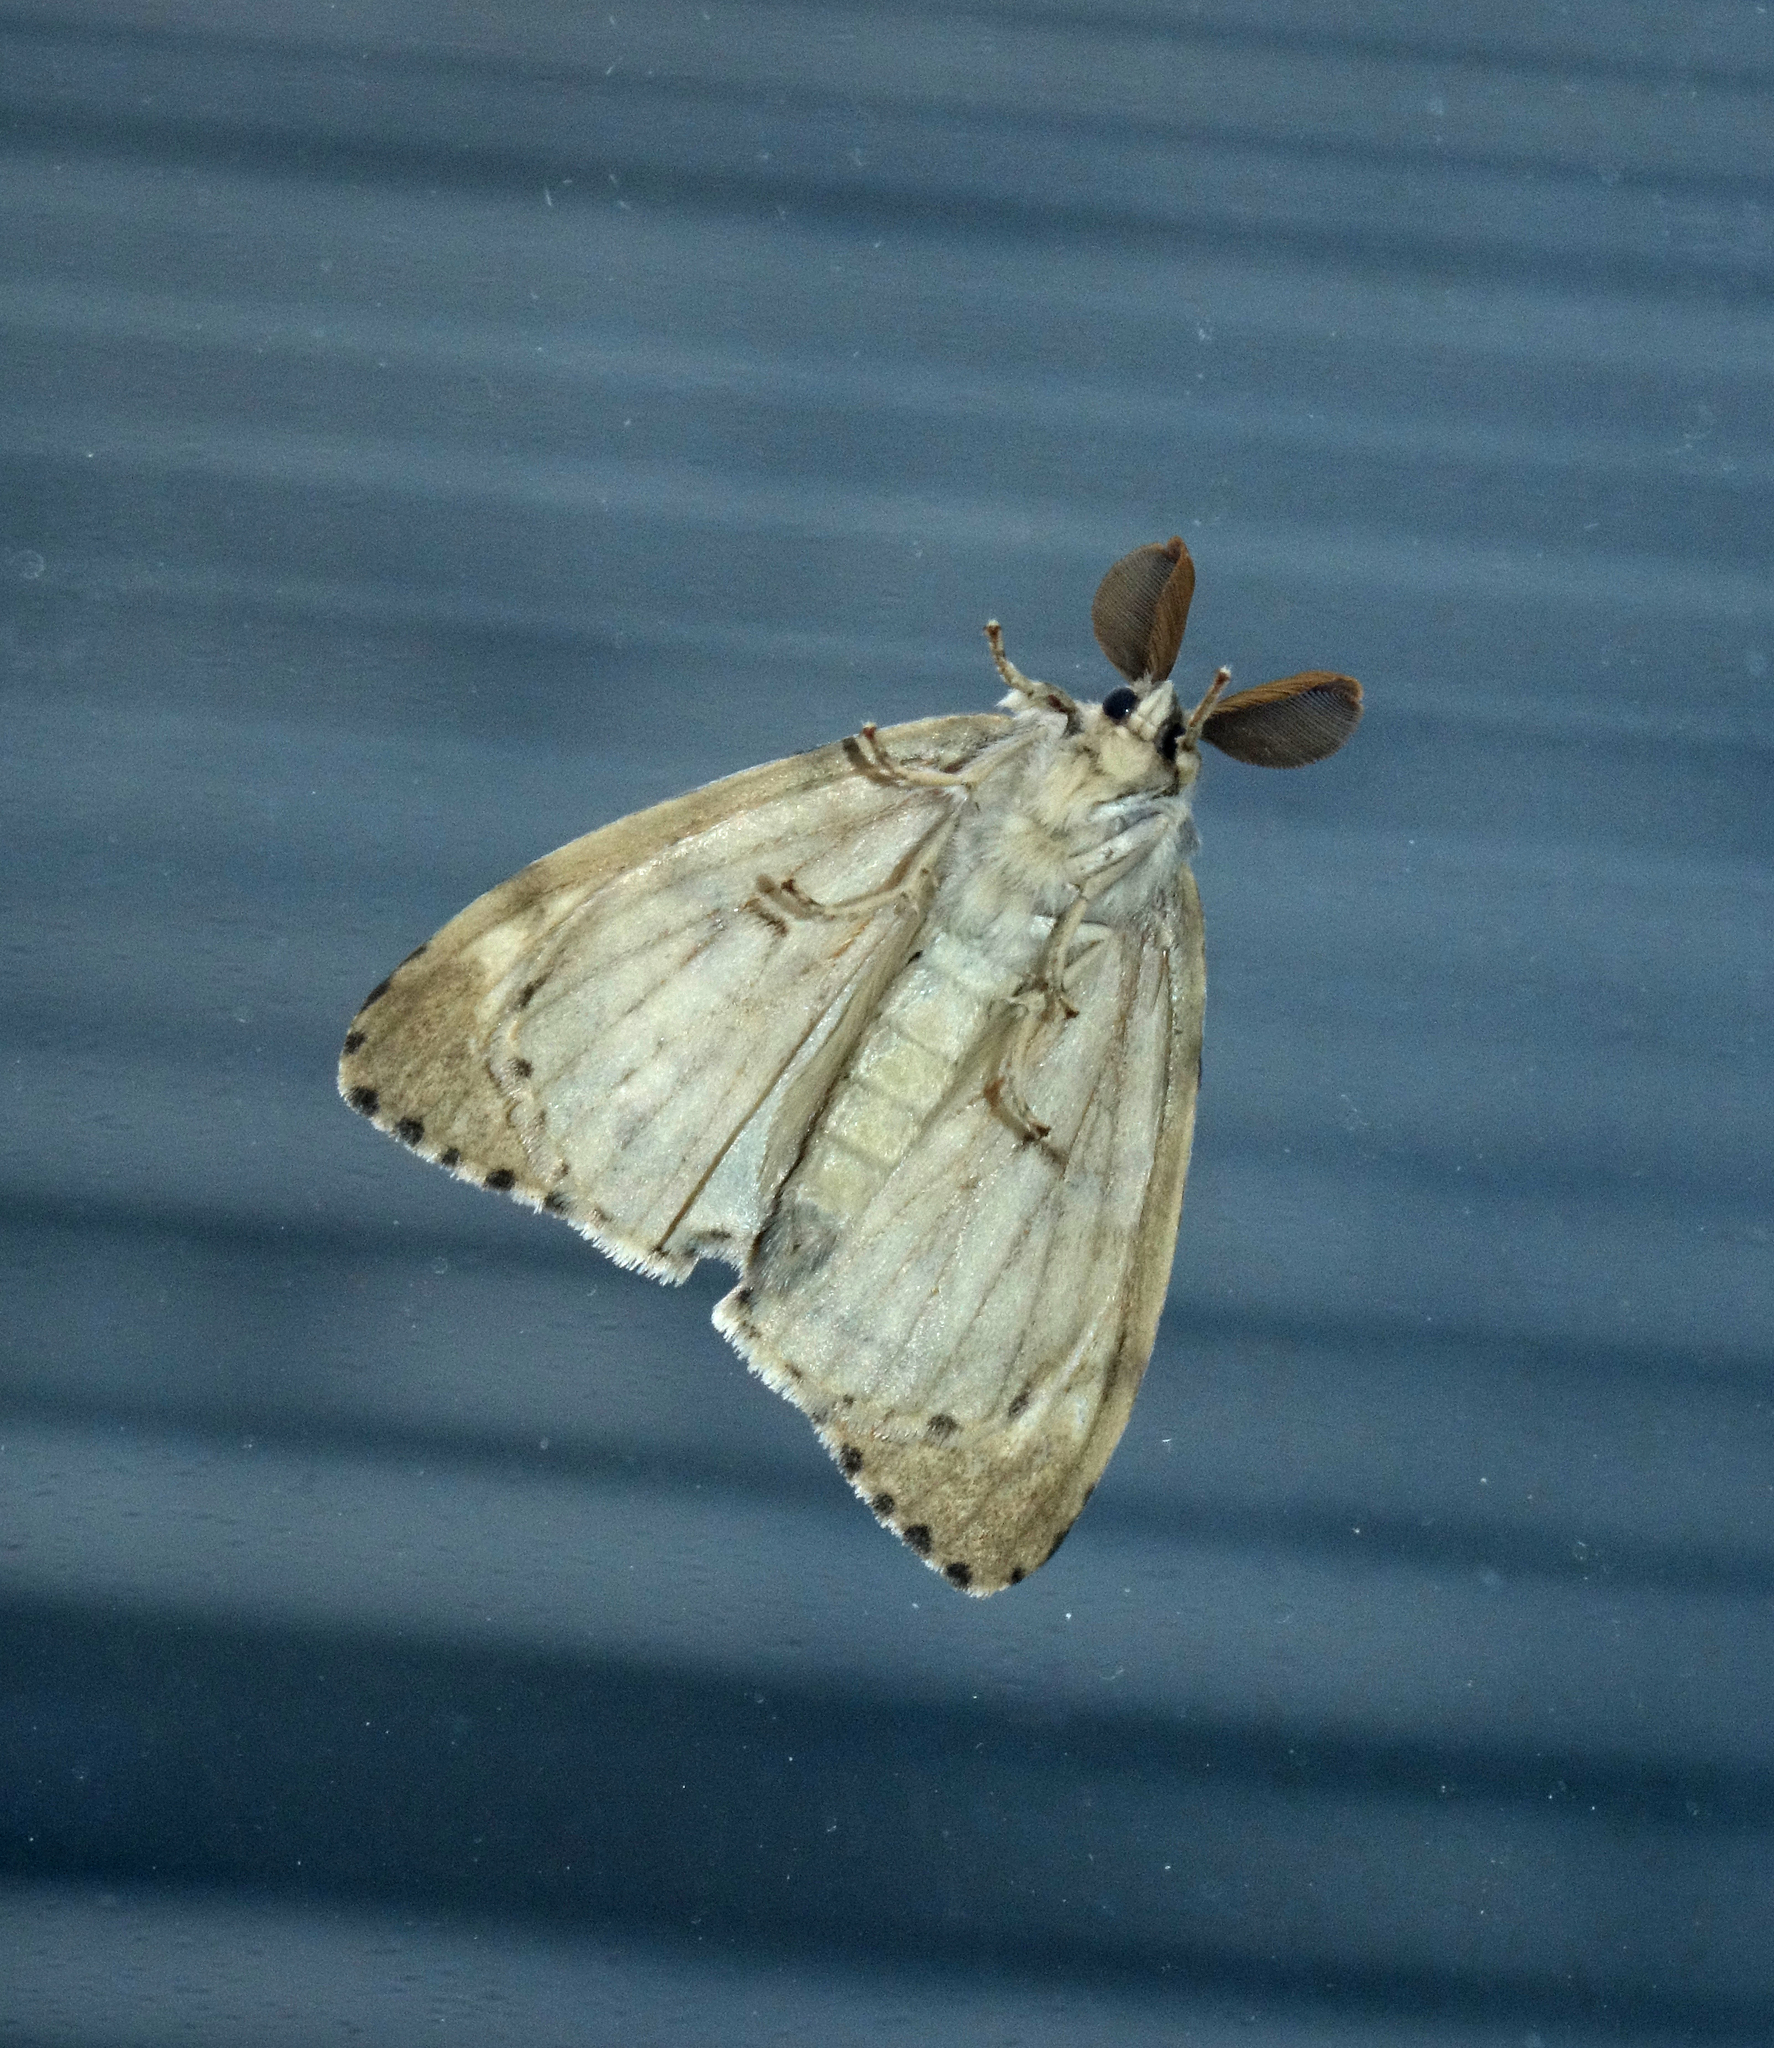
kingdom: Animalia
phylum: Arthropoda
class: Insecta
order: Lepidoptera
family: Erebidae
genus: Lymantria
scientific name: Lymantria dispar
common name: Gypsy moth
